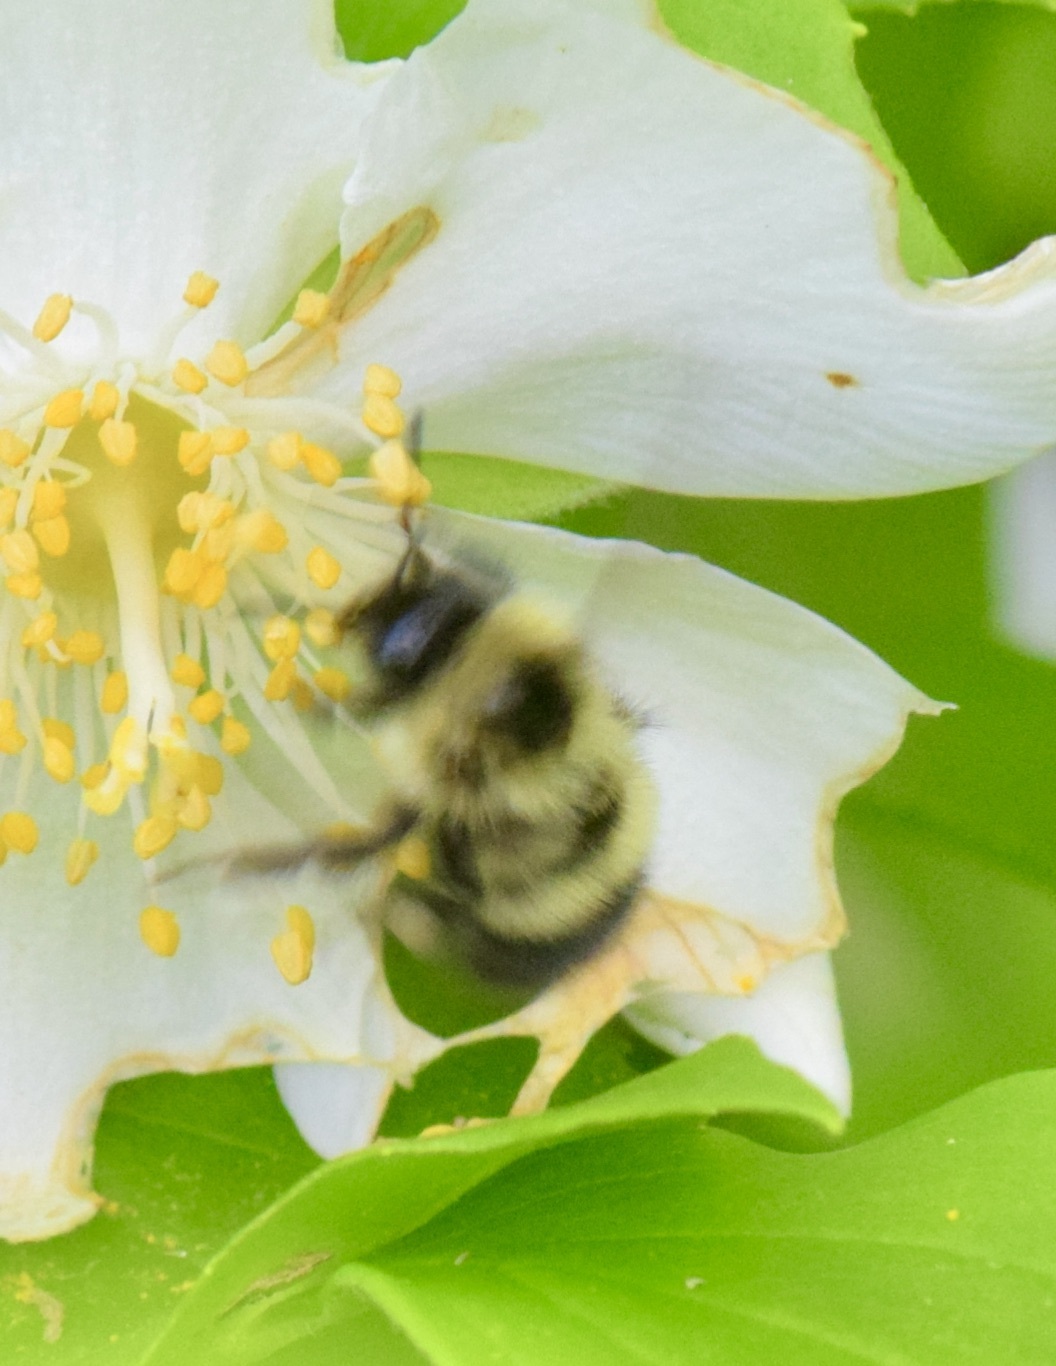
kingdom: Animalia
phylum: Arthropoda
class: Insecta
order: Hymenoptera
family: Apidae
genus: Pyrobombus
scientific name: Pyrobombus
